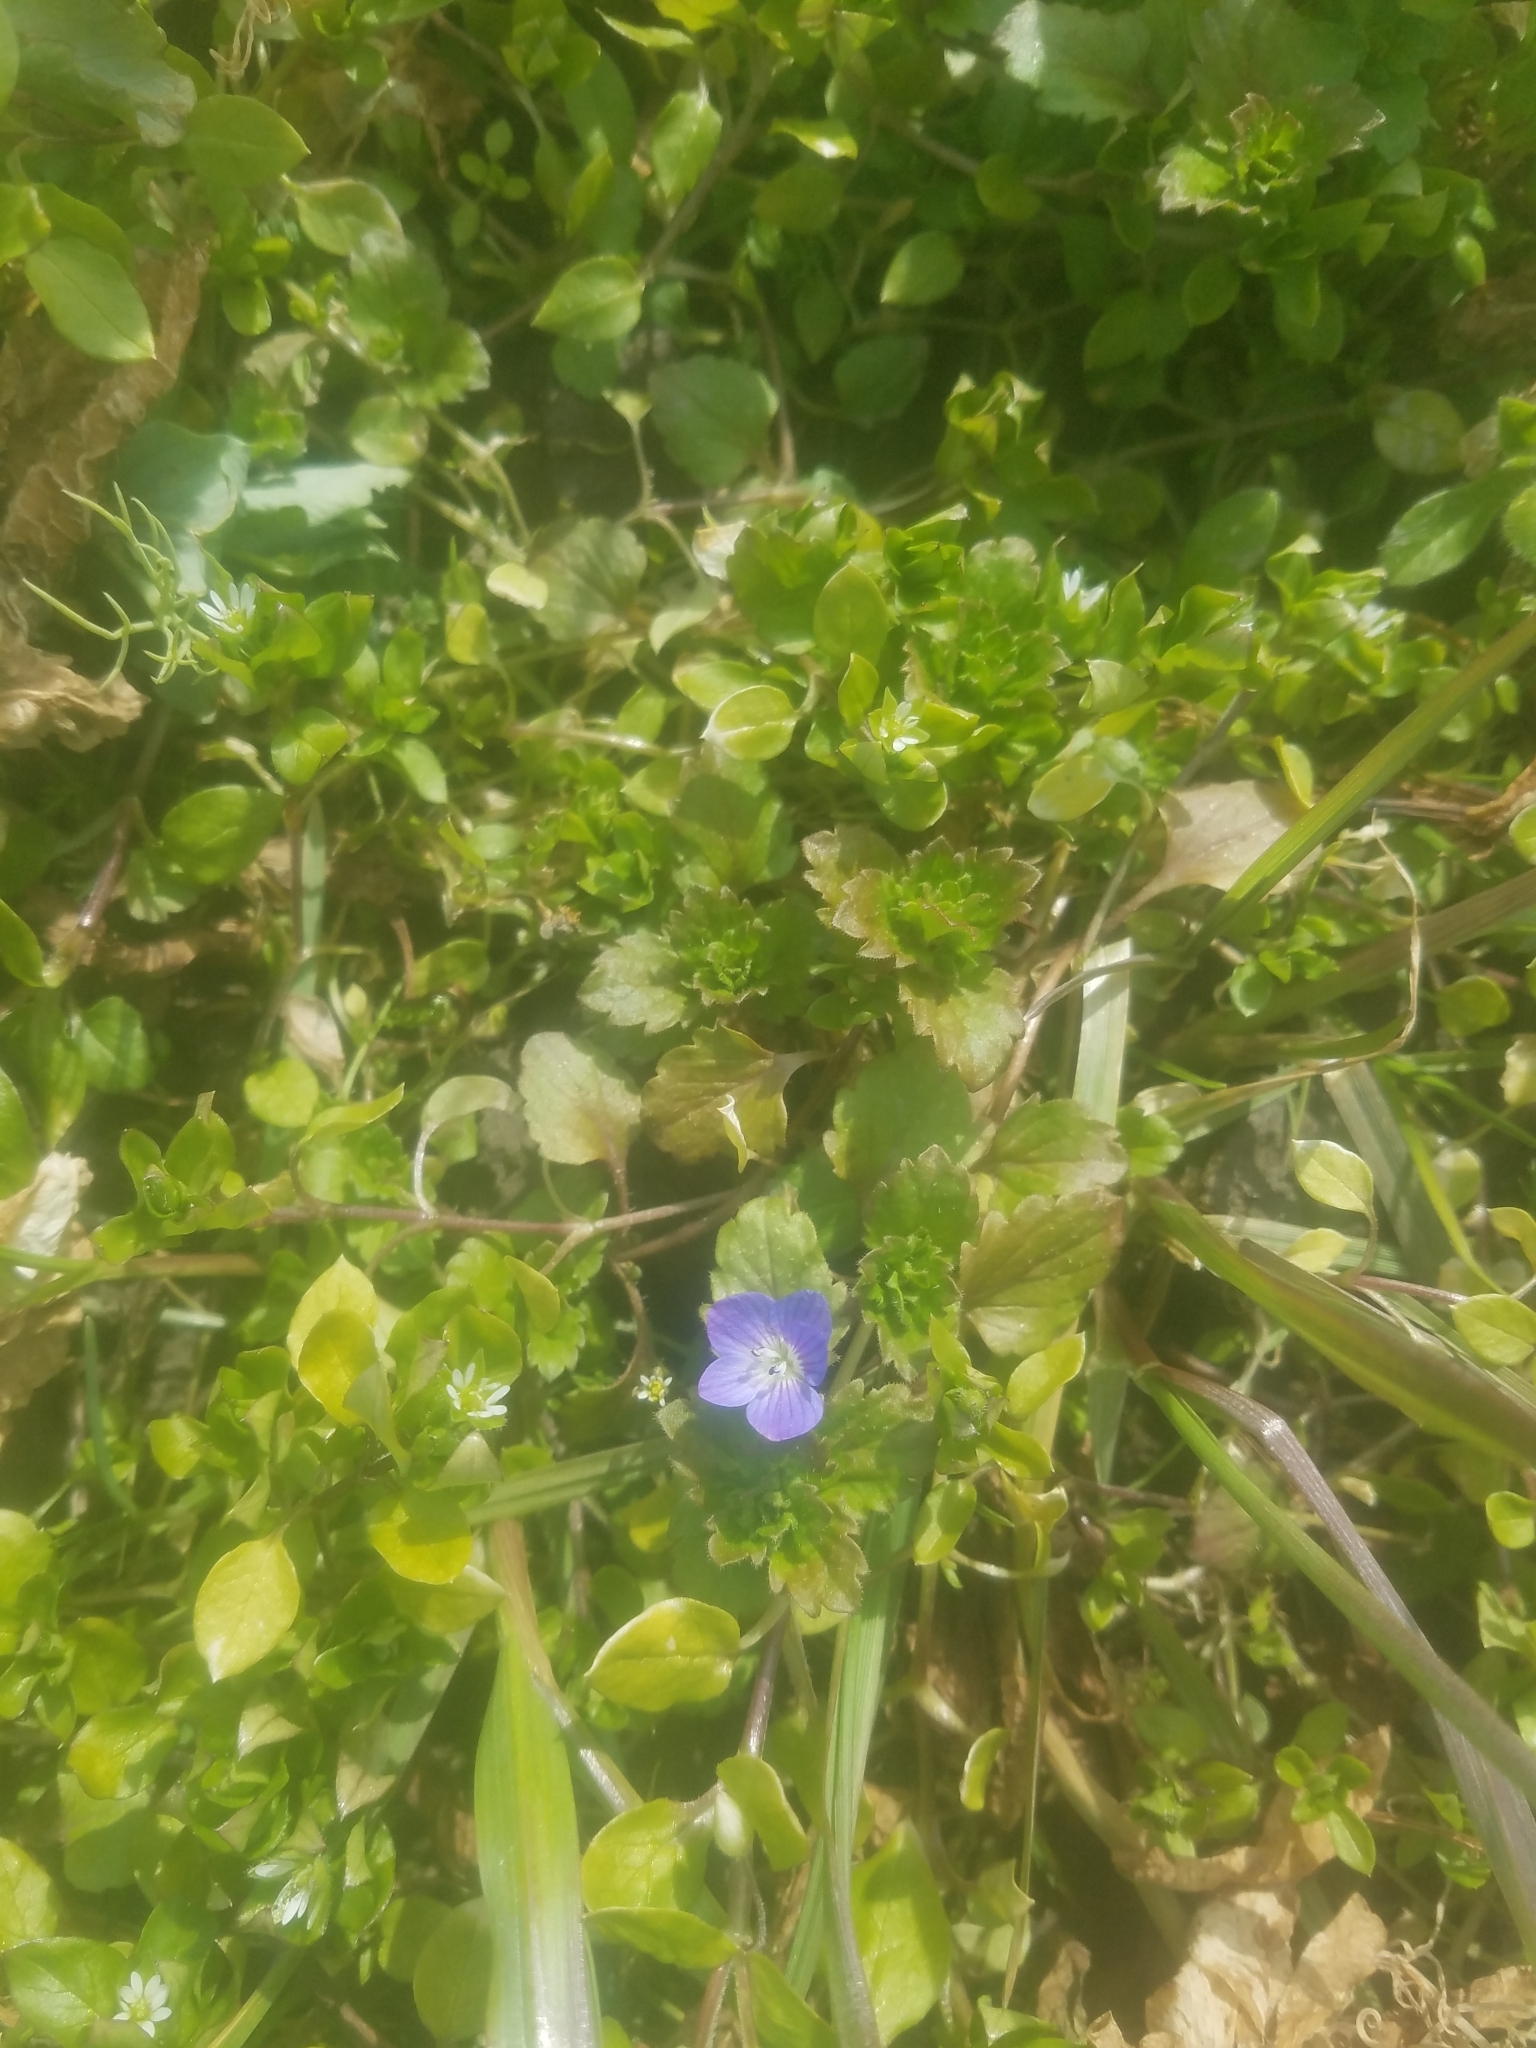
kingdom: Plantae
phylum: Tracheophyta
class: Magnoliopsida
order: Lamiales
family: Plantaginaceae
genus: Veronica
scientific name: Veronica persica
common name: Common field-speedwell
